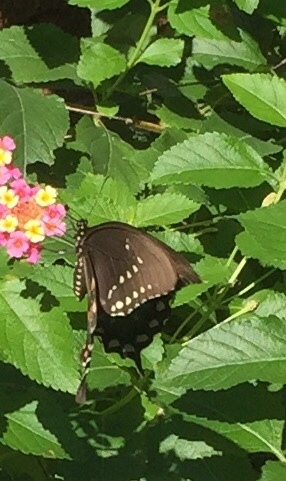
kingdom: Animalia
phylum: Arthropoda
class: Insecta
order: Lepidoptera
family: Papilionidae
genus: Papilio
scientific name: Papilio troilus
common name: Spicebush swallowtail
